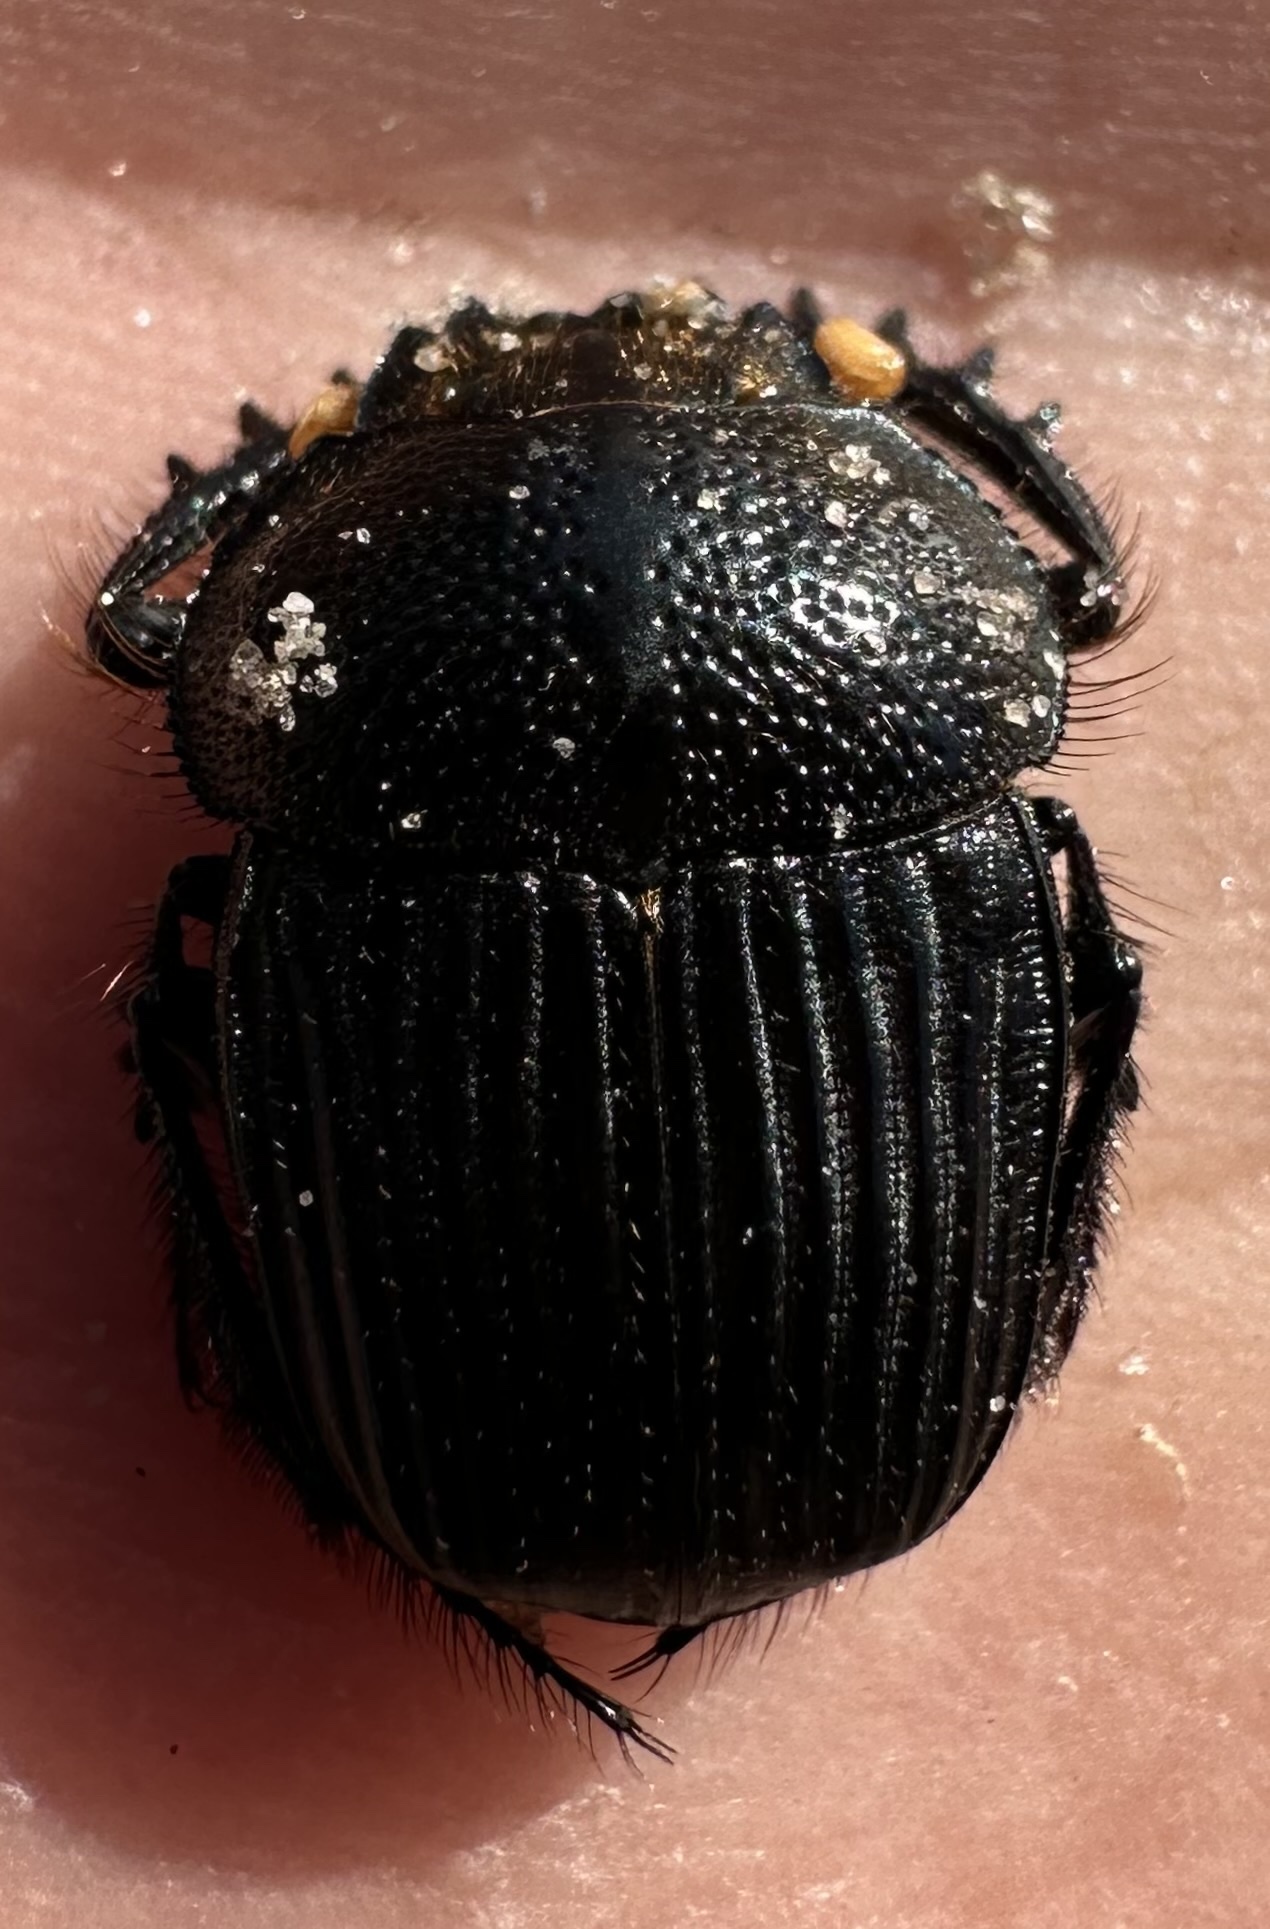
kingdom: Animalia
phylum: Arthropoda
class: Insecta
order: Coleoptera
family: Scarabaeidae
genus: Scarabaeolus
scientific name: Scarabaeolus afronitidus
